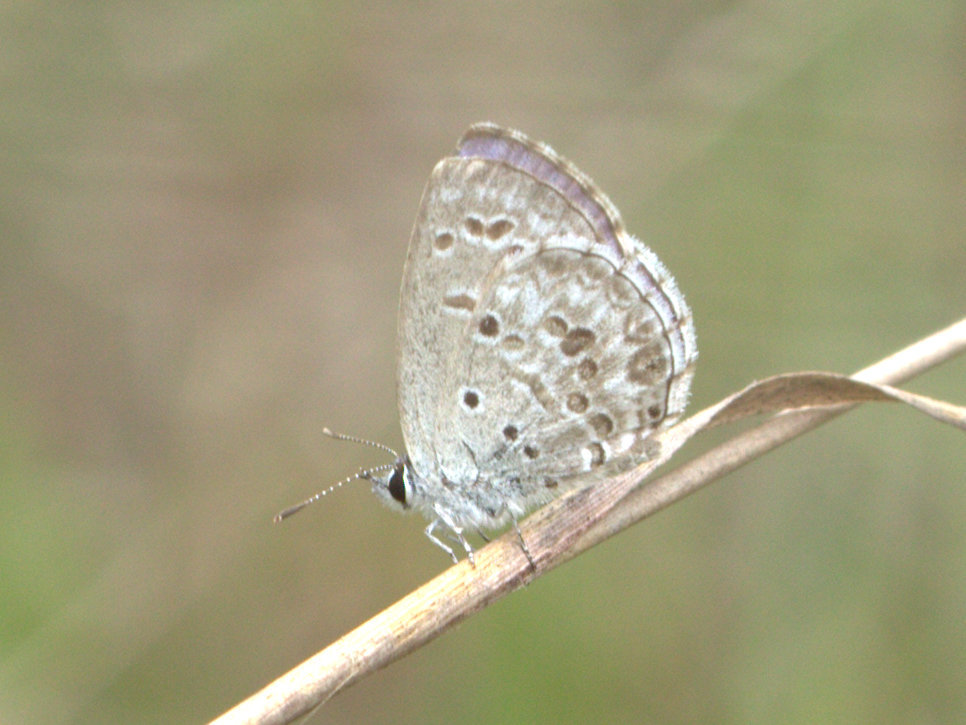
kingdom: Animalia
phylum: Arthropoda
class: Insecta
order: Lepidoptera
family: Lycaenidae
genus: Chilades
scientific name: Chilades laius
